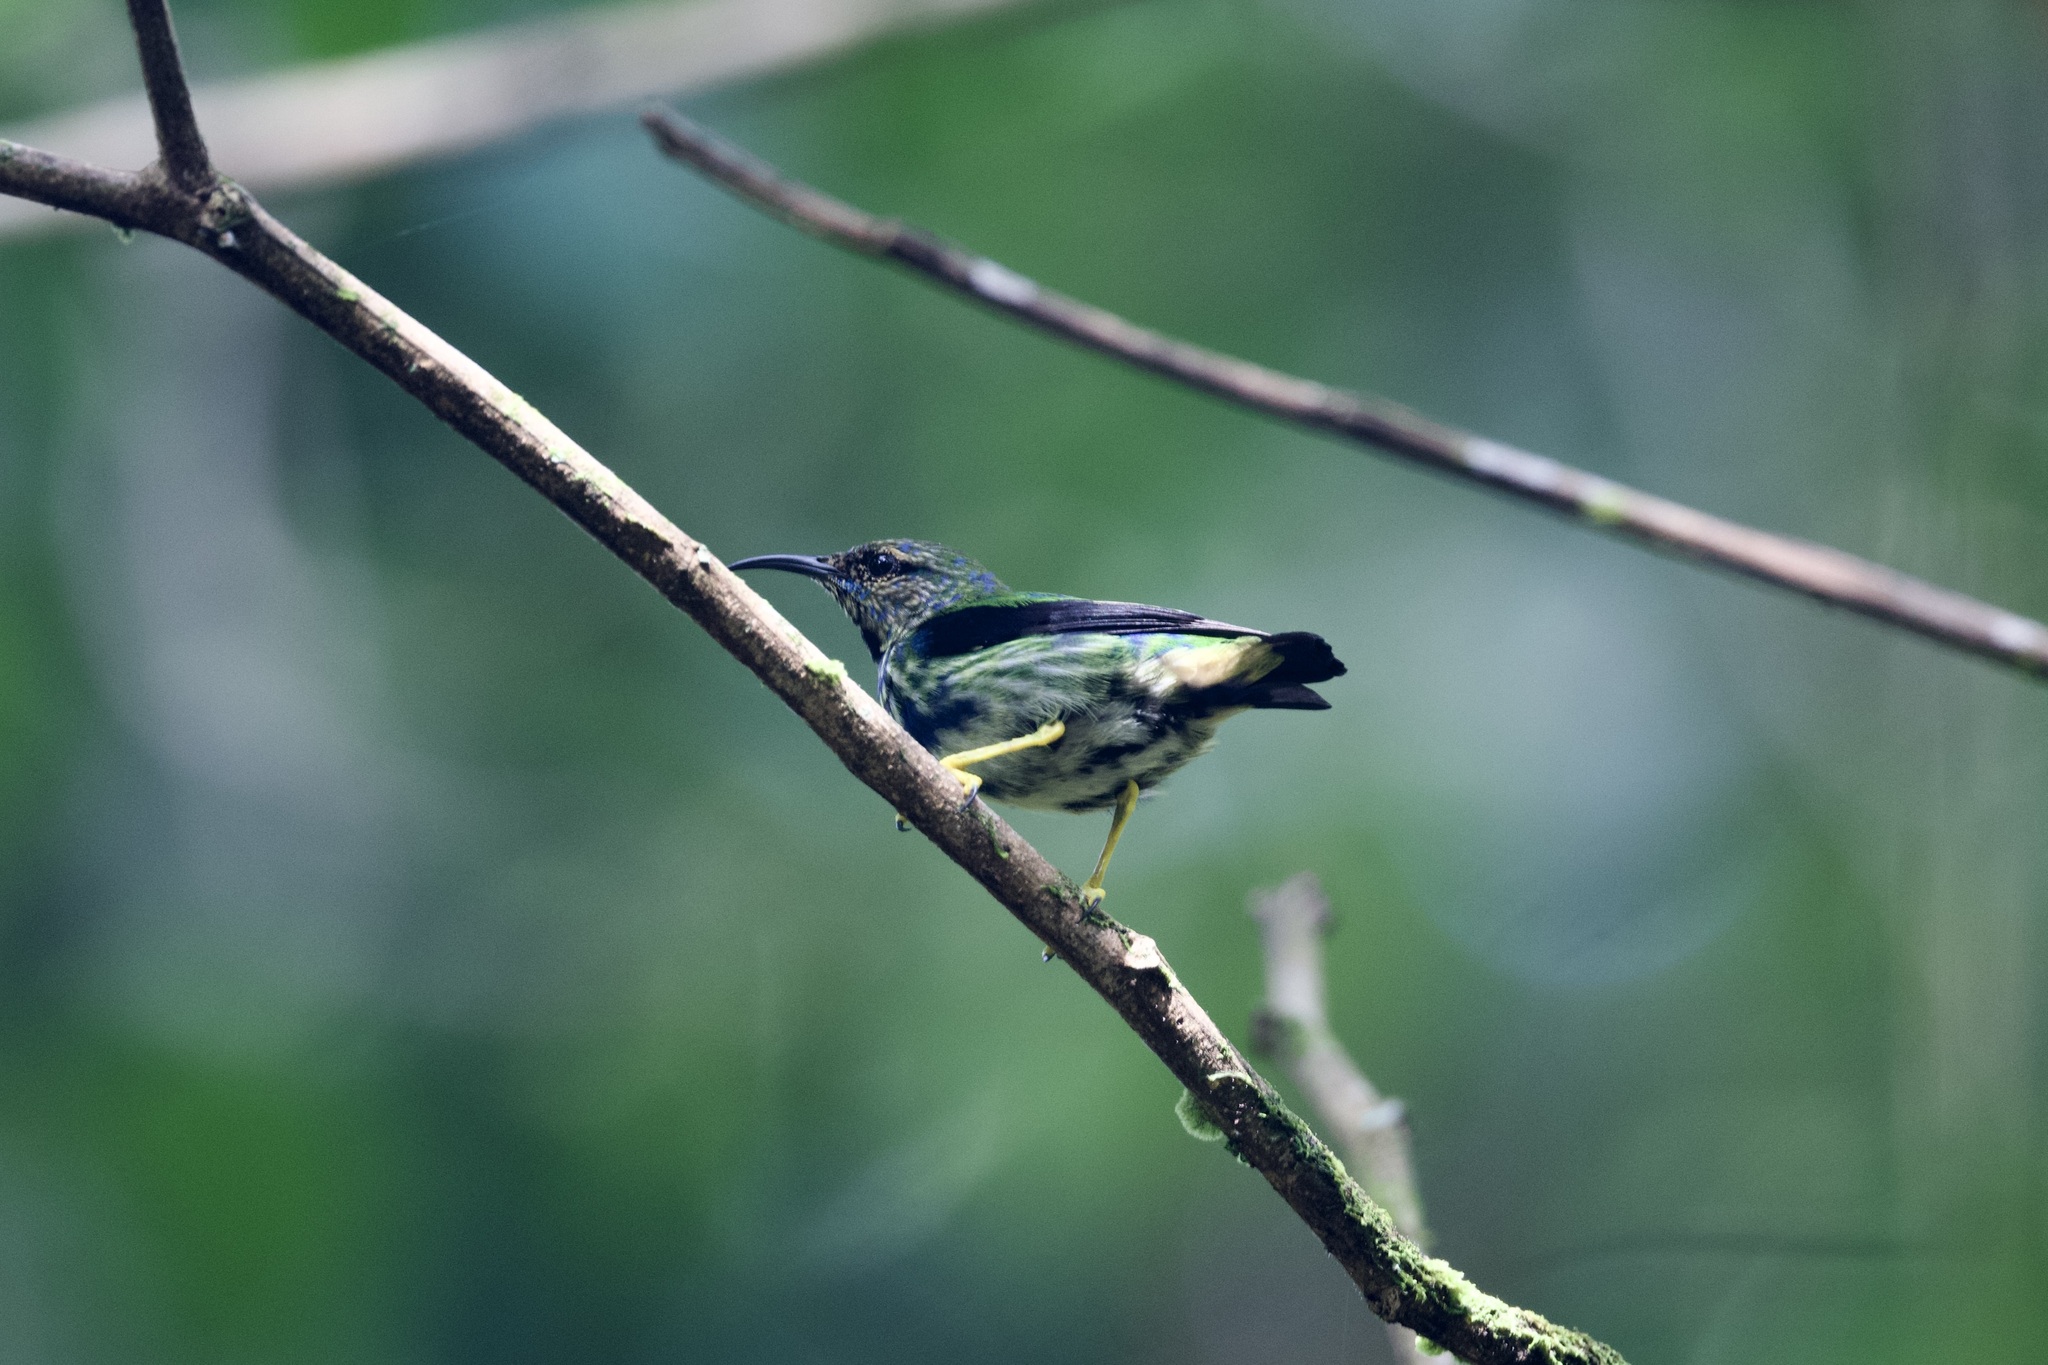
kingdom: Animalia
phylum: Chordata
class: Aves
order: Passeriformes
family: Thraupidae
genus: Cyanerpes
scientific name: Cyanerpes caeruleus
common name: Purple honeycreeper
